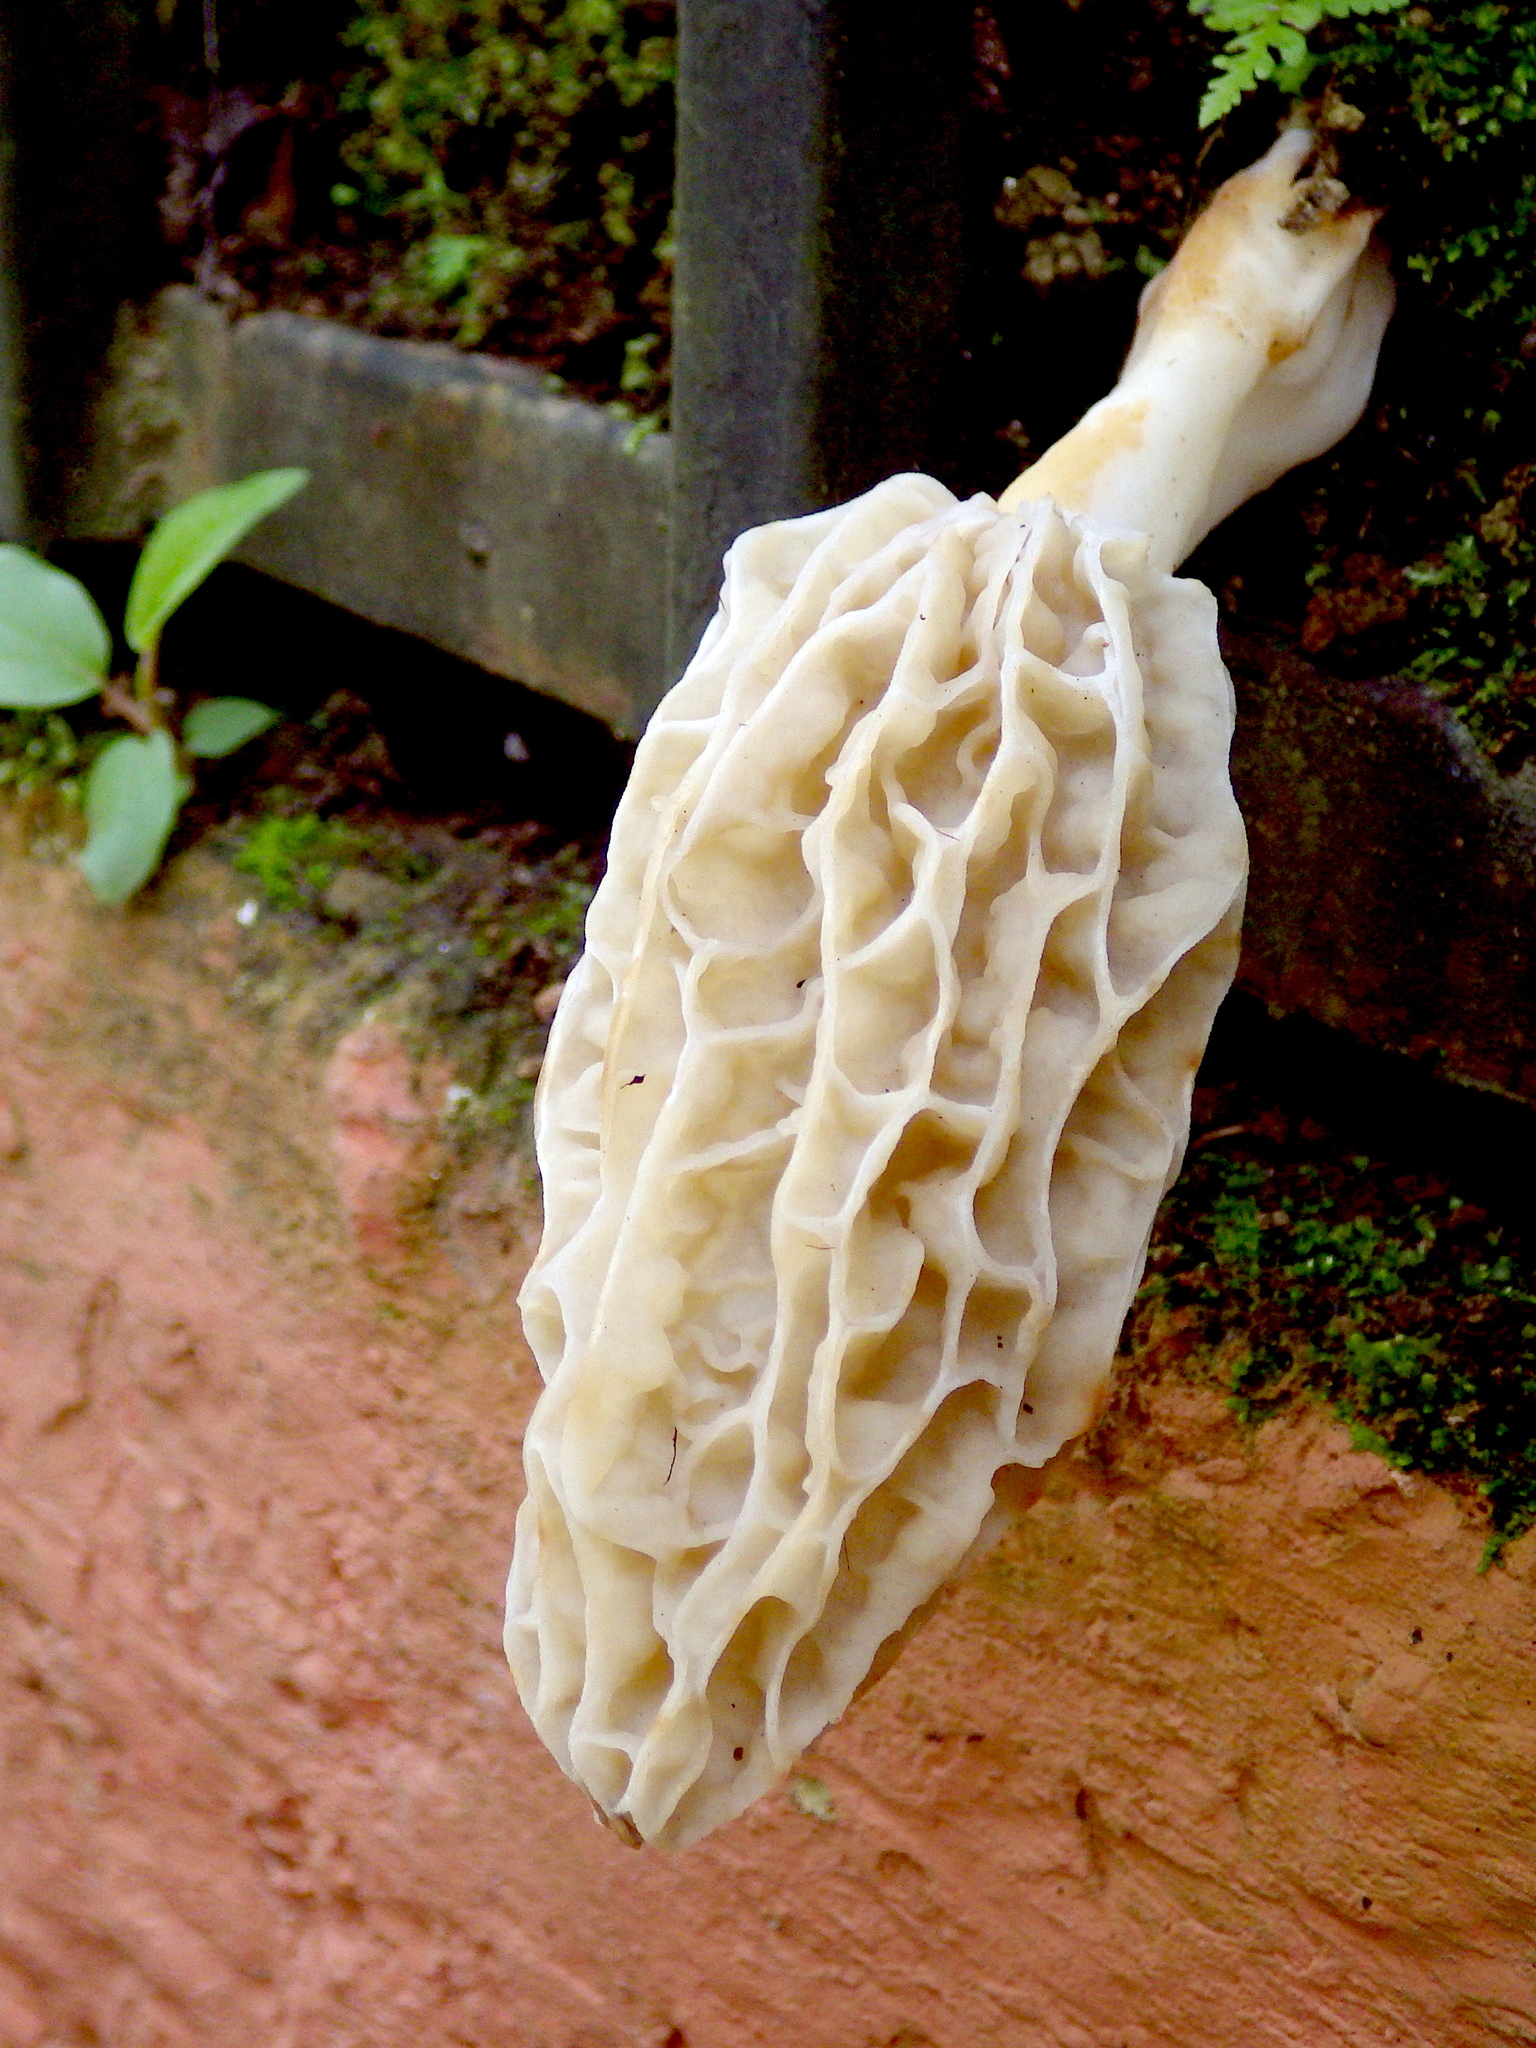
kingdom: Fungi
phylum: Ascomycota
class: Pezizomycetes
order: Pezizales
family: Morchellaceae
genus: Morchella
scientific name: Morchella herediana
